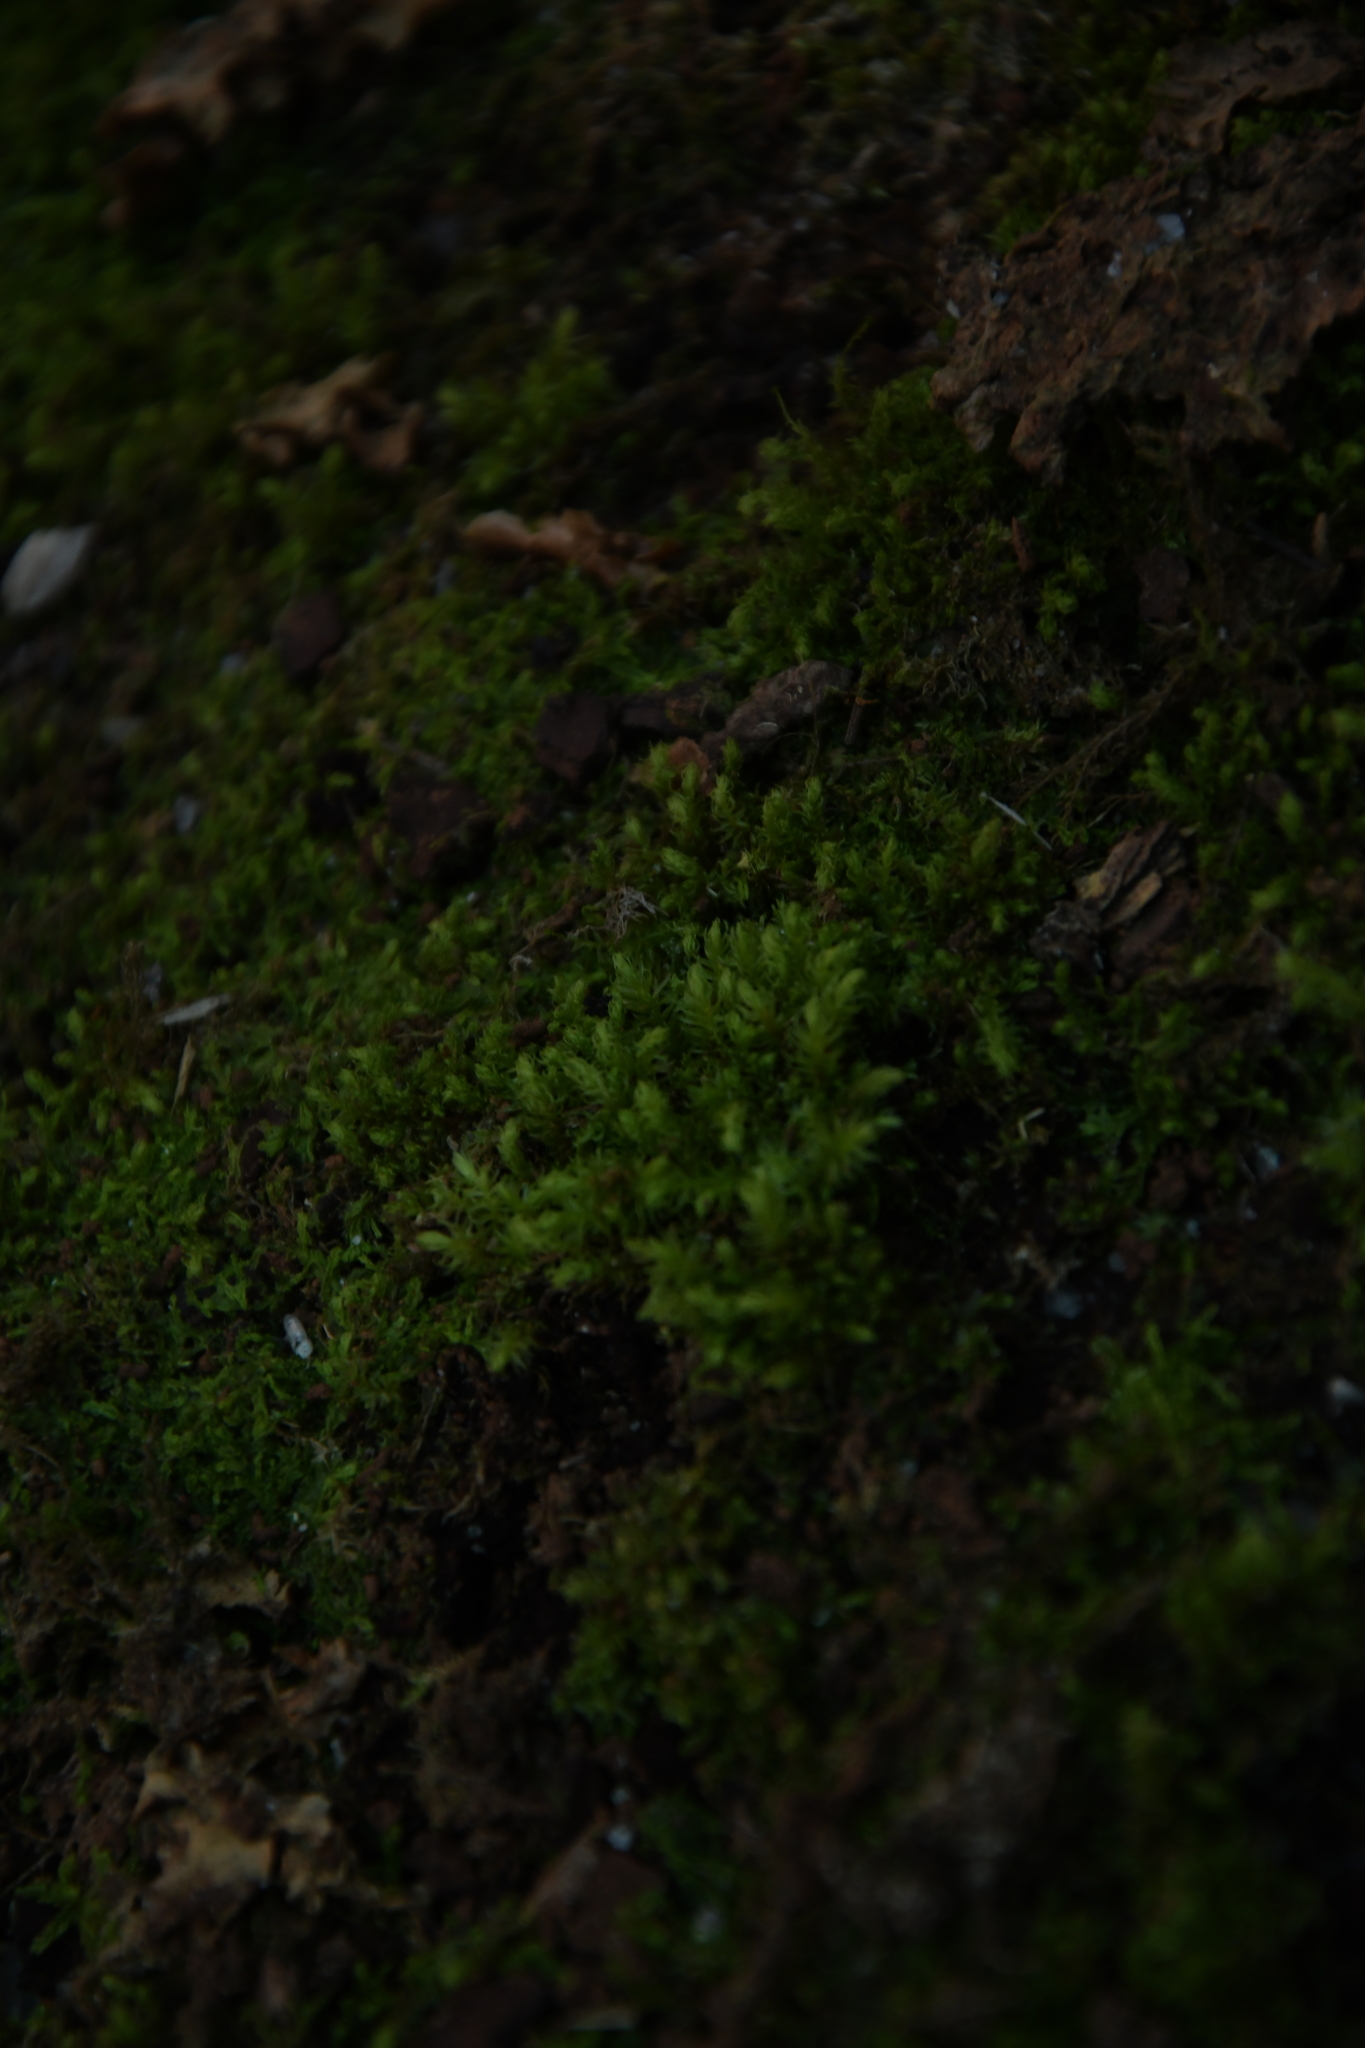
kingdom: Plantae
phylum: Bryophyta
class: Sphagnopsida
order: Sphagnales
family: Sphagnaceae
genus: Sphagnum
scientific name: Sphagnum novozelandicum
